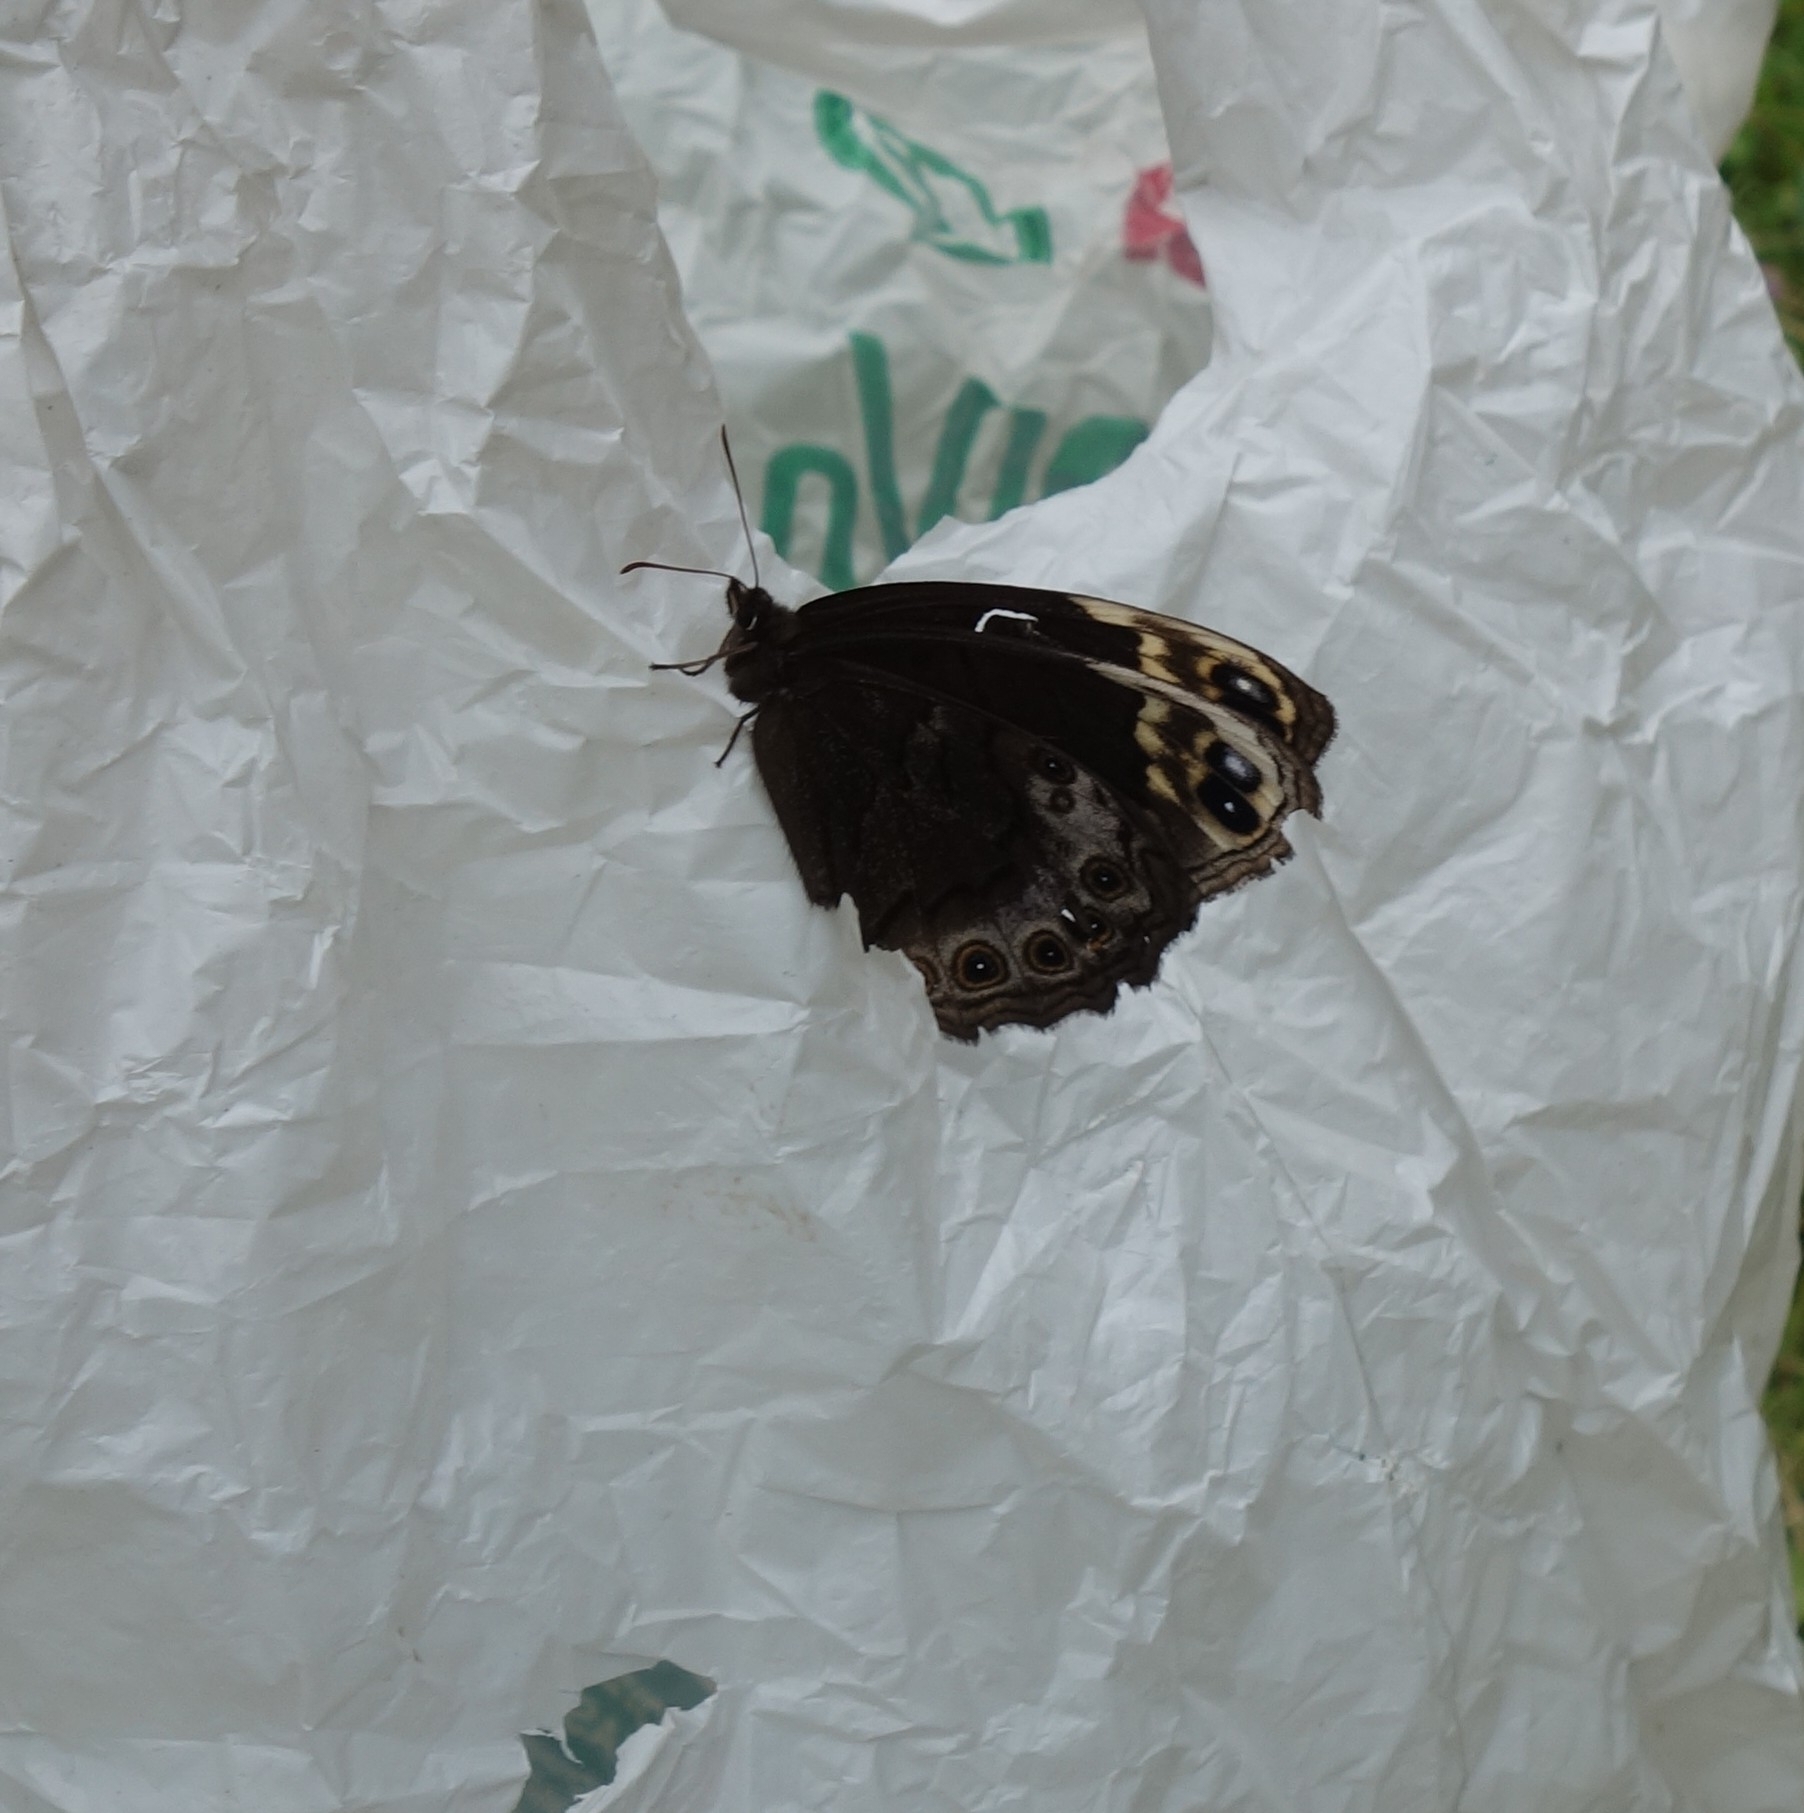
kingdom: Animalia
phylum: Arthropoda
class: Insecta
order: Lepidoptera
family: Nymphalidae
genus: Dira
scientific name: Dira swanepoeli
